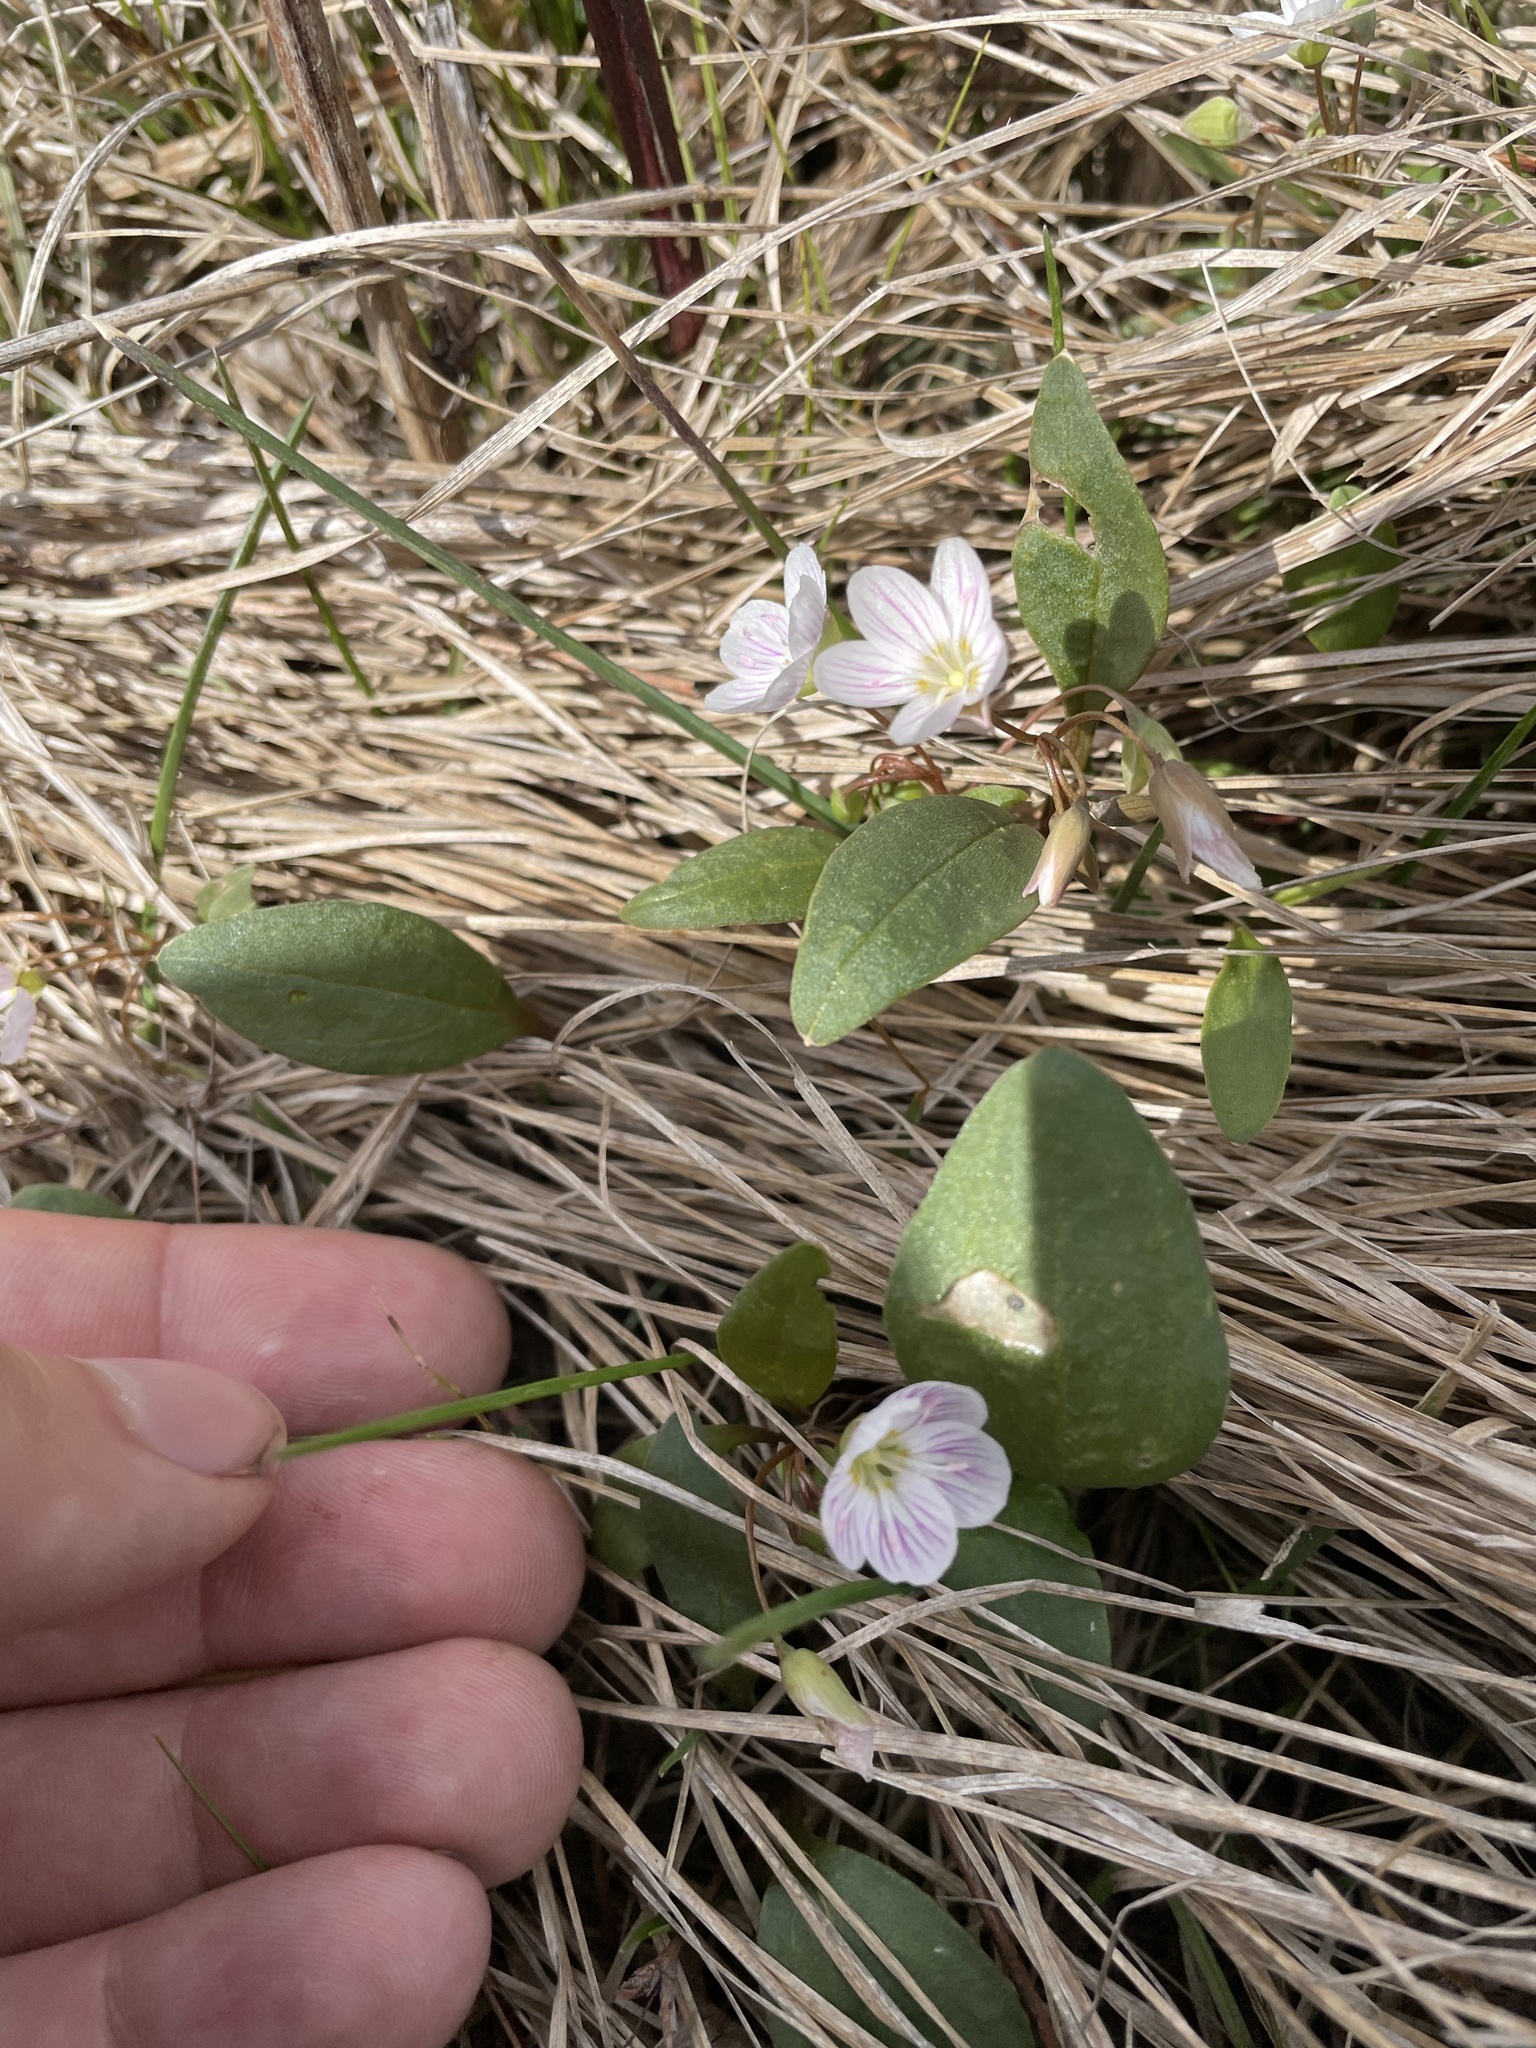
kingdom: Plantae
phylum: Tracheophyta
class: Magnoliopsida
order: Caryophyllales
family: Montiaceae
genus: Claytonia
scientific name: Claytonia caroliniana
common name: Carolina spring beauty
